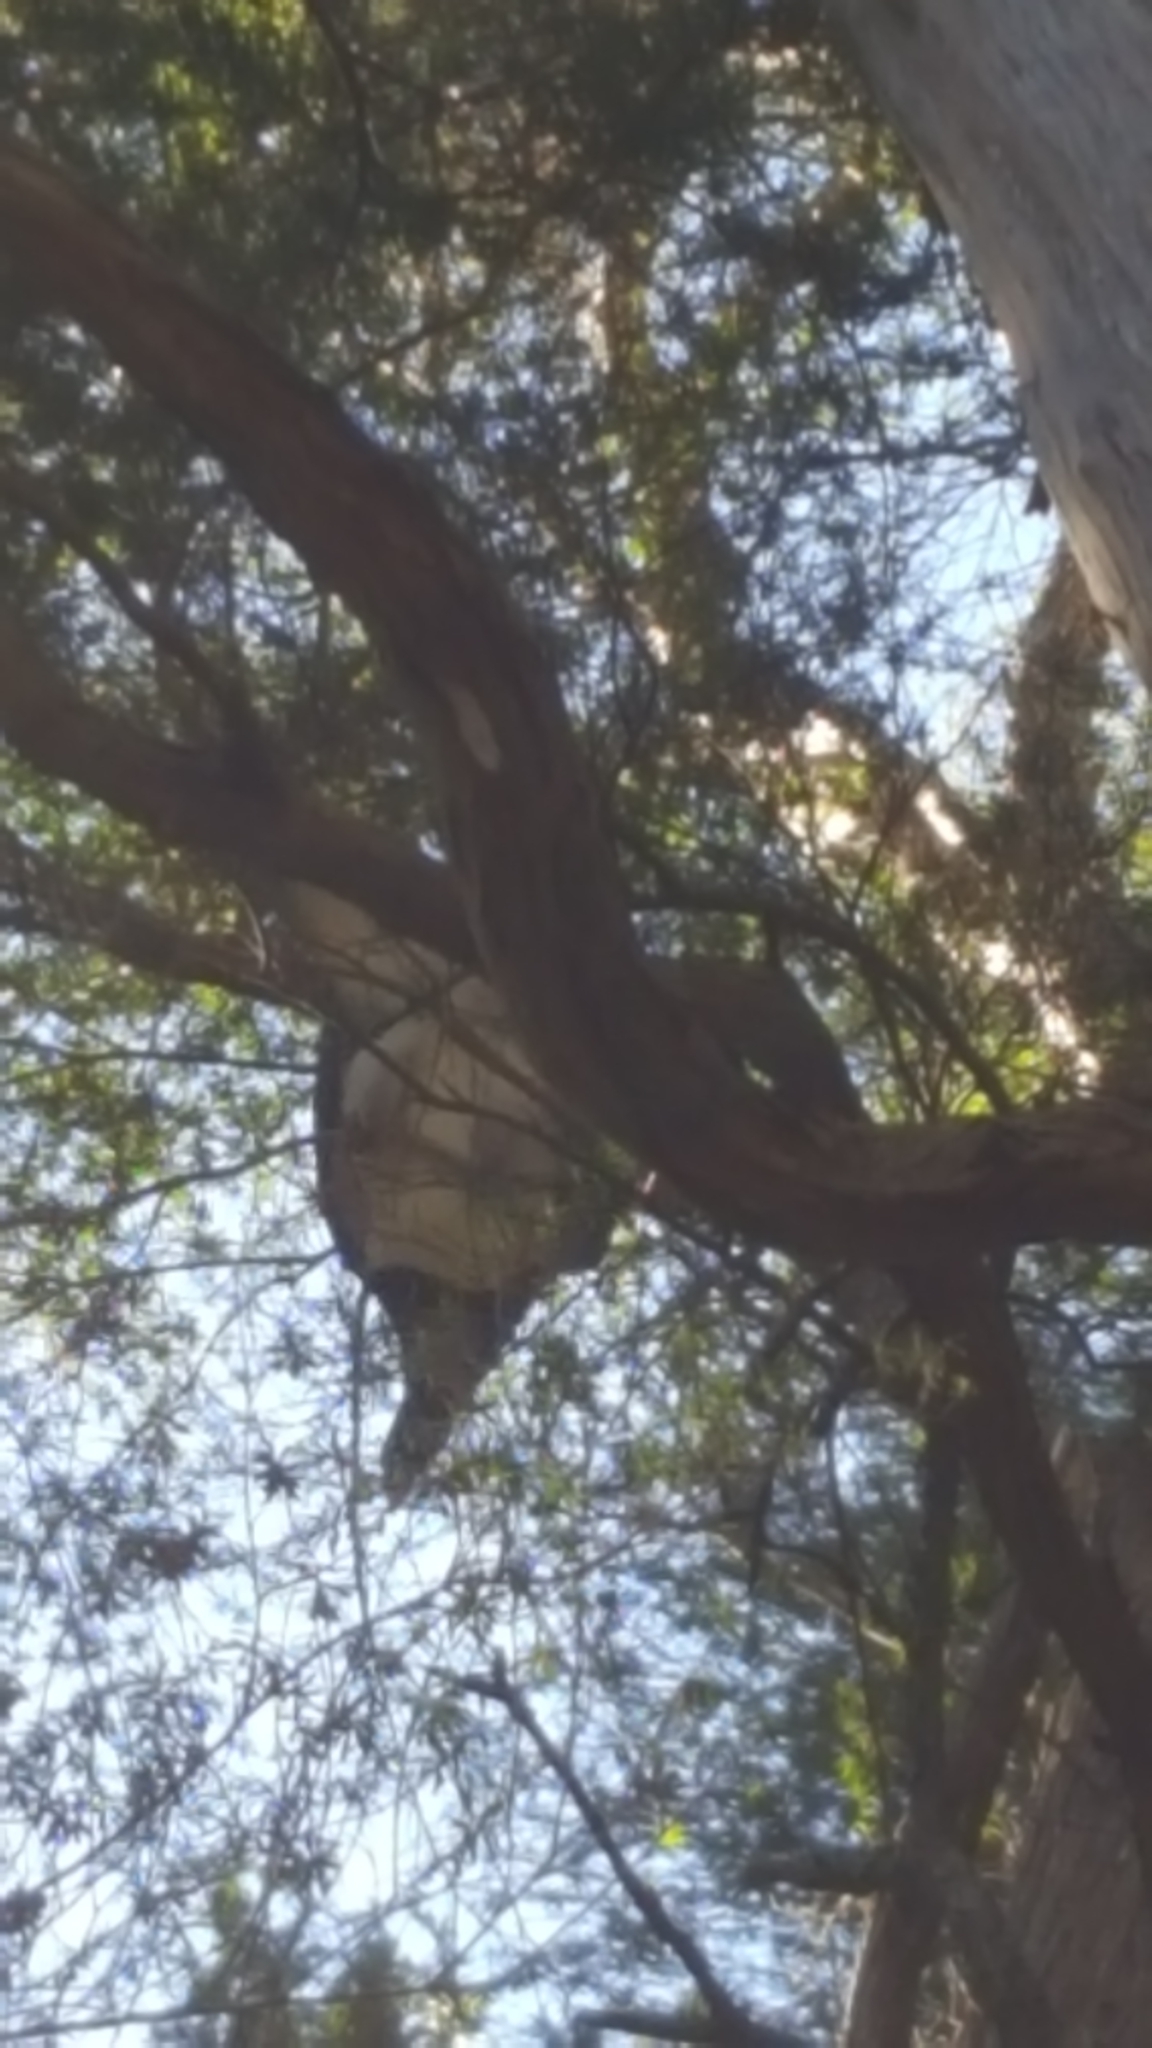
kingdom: Animalia
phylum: Chordata
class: Aves
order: Columbiformes
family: Columbidae
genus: Hemiphaga
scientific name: Hemiphaga novaeseelandiae
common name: New zealand pigeon
